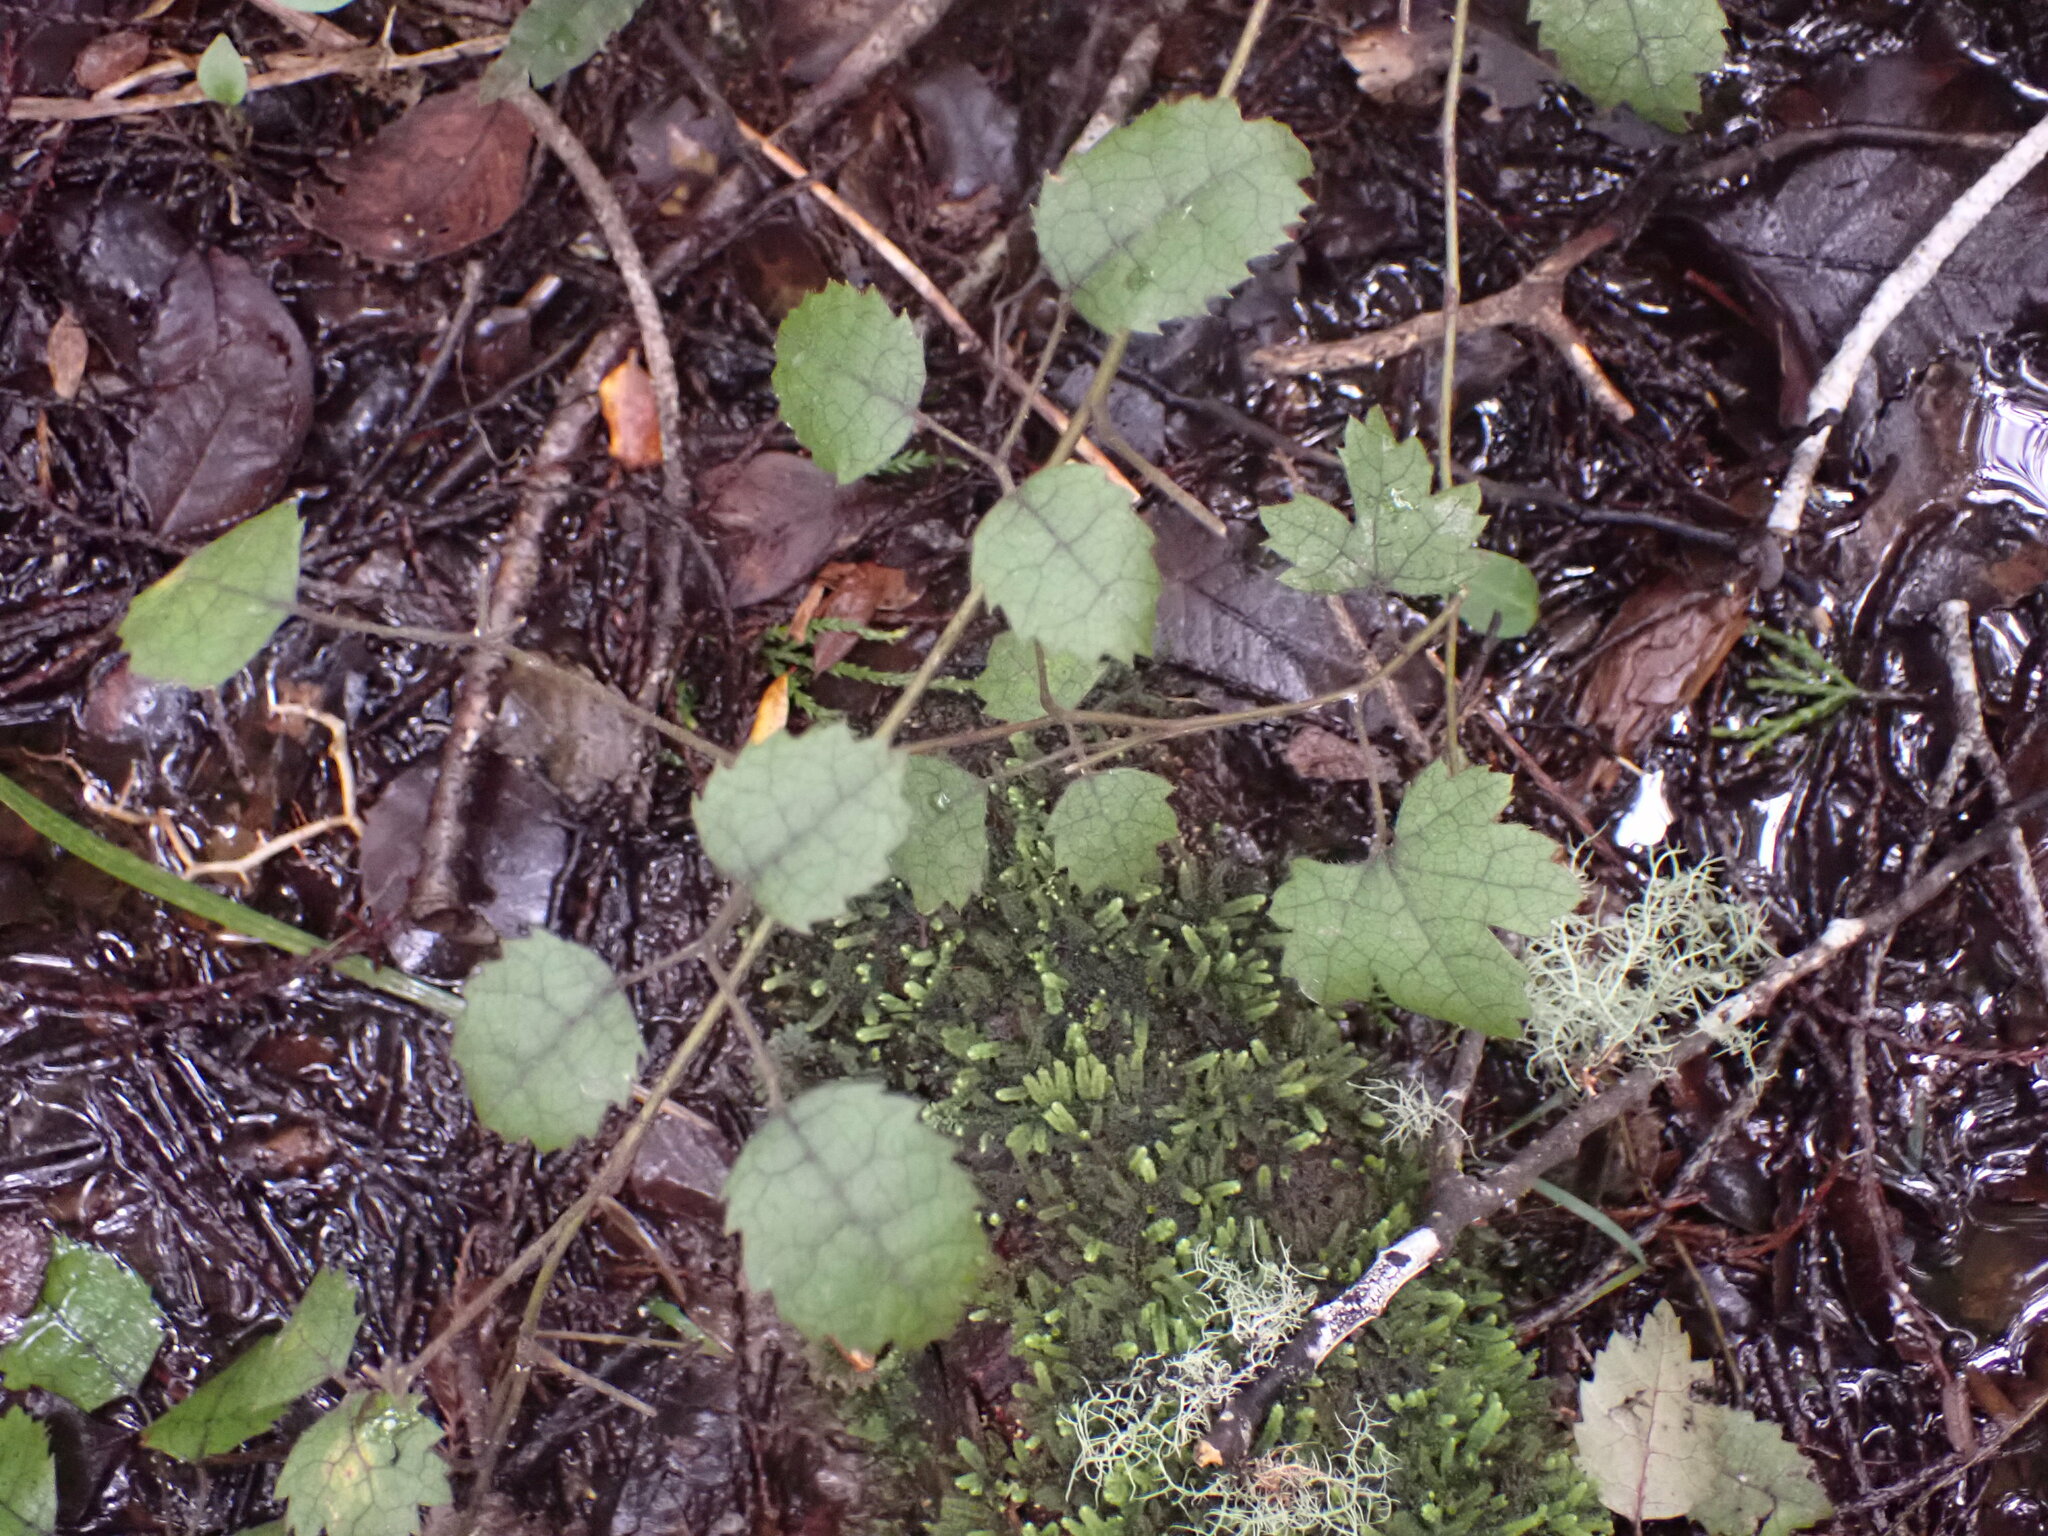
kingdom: Plantae
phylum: Tracheophyta
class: Magnoliopsida
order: Rosales
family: Rosaceae
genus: Rubus
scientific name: Rubus australis
